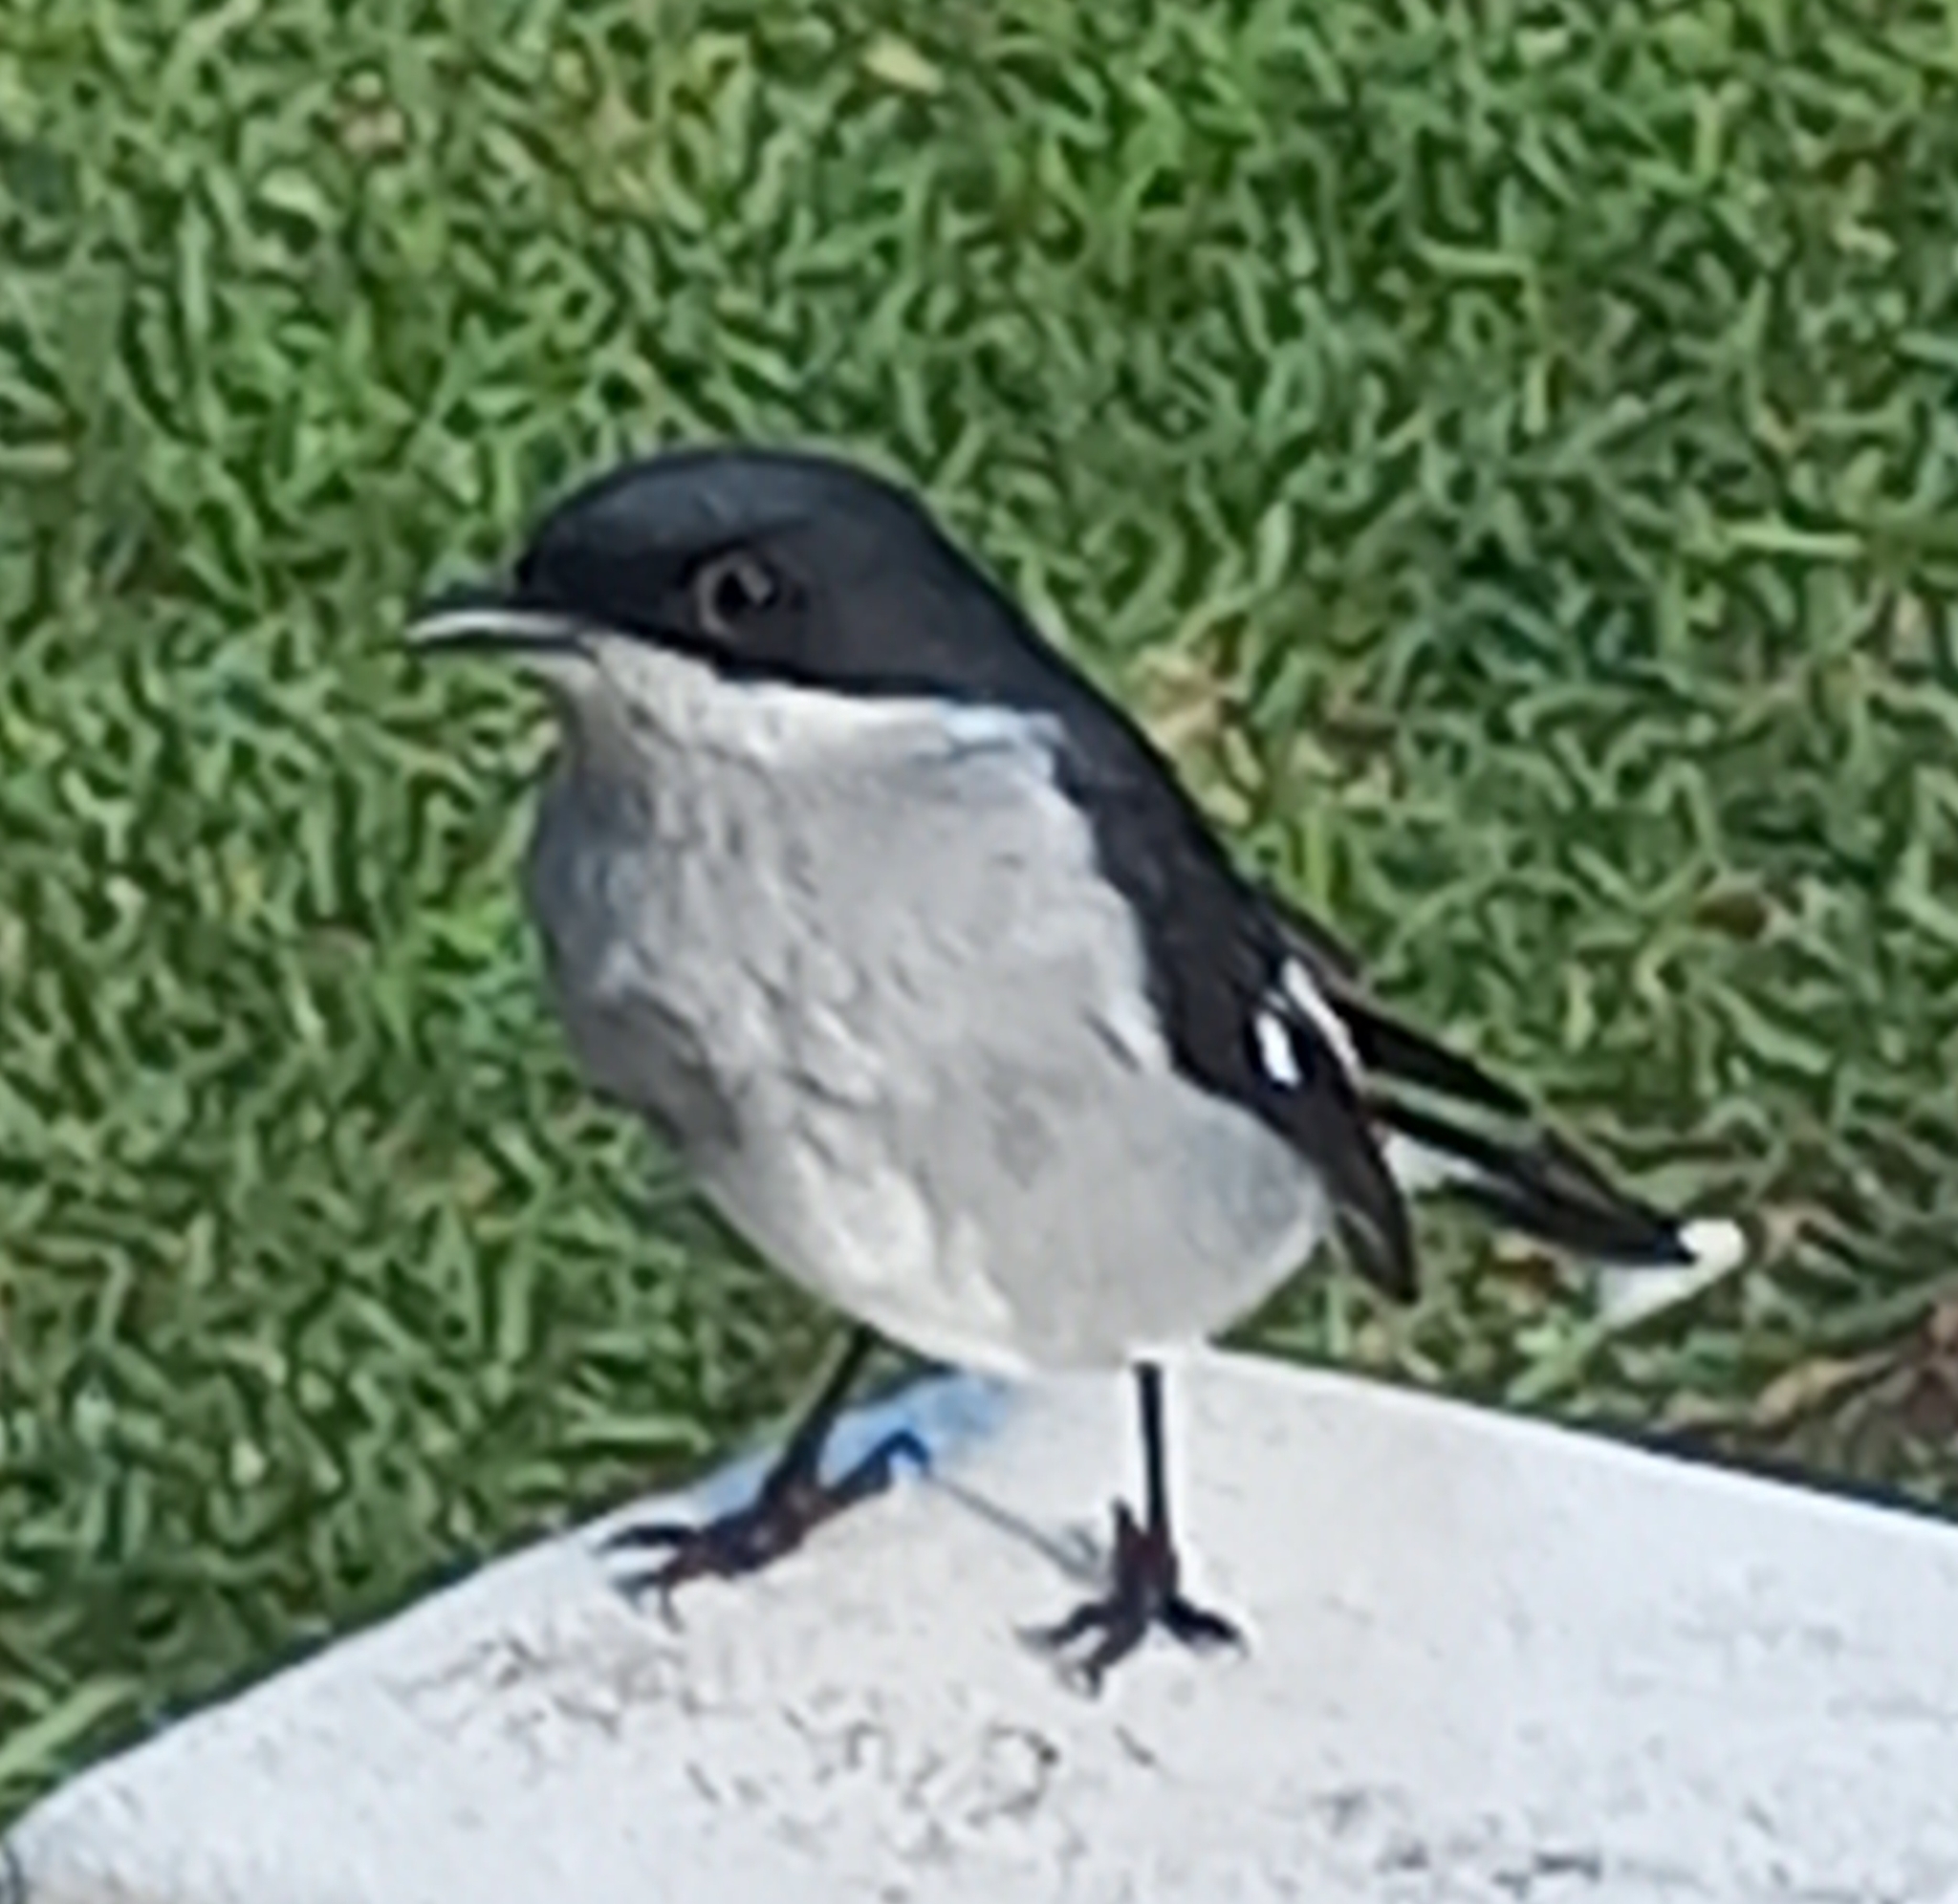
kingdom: Animalia
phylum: Chordata
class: Aves
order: Passeriformes
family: Muscicapidae
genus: Sigelus
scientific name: Sigelus silens
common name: Fiscal flycatcher
